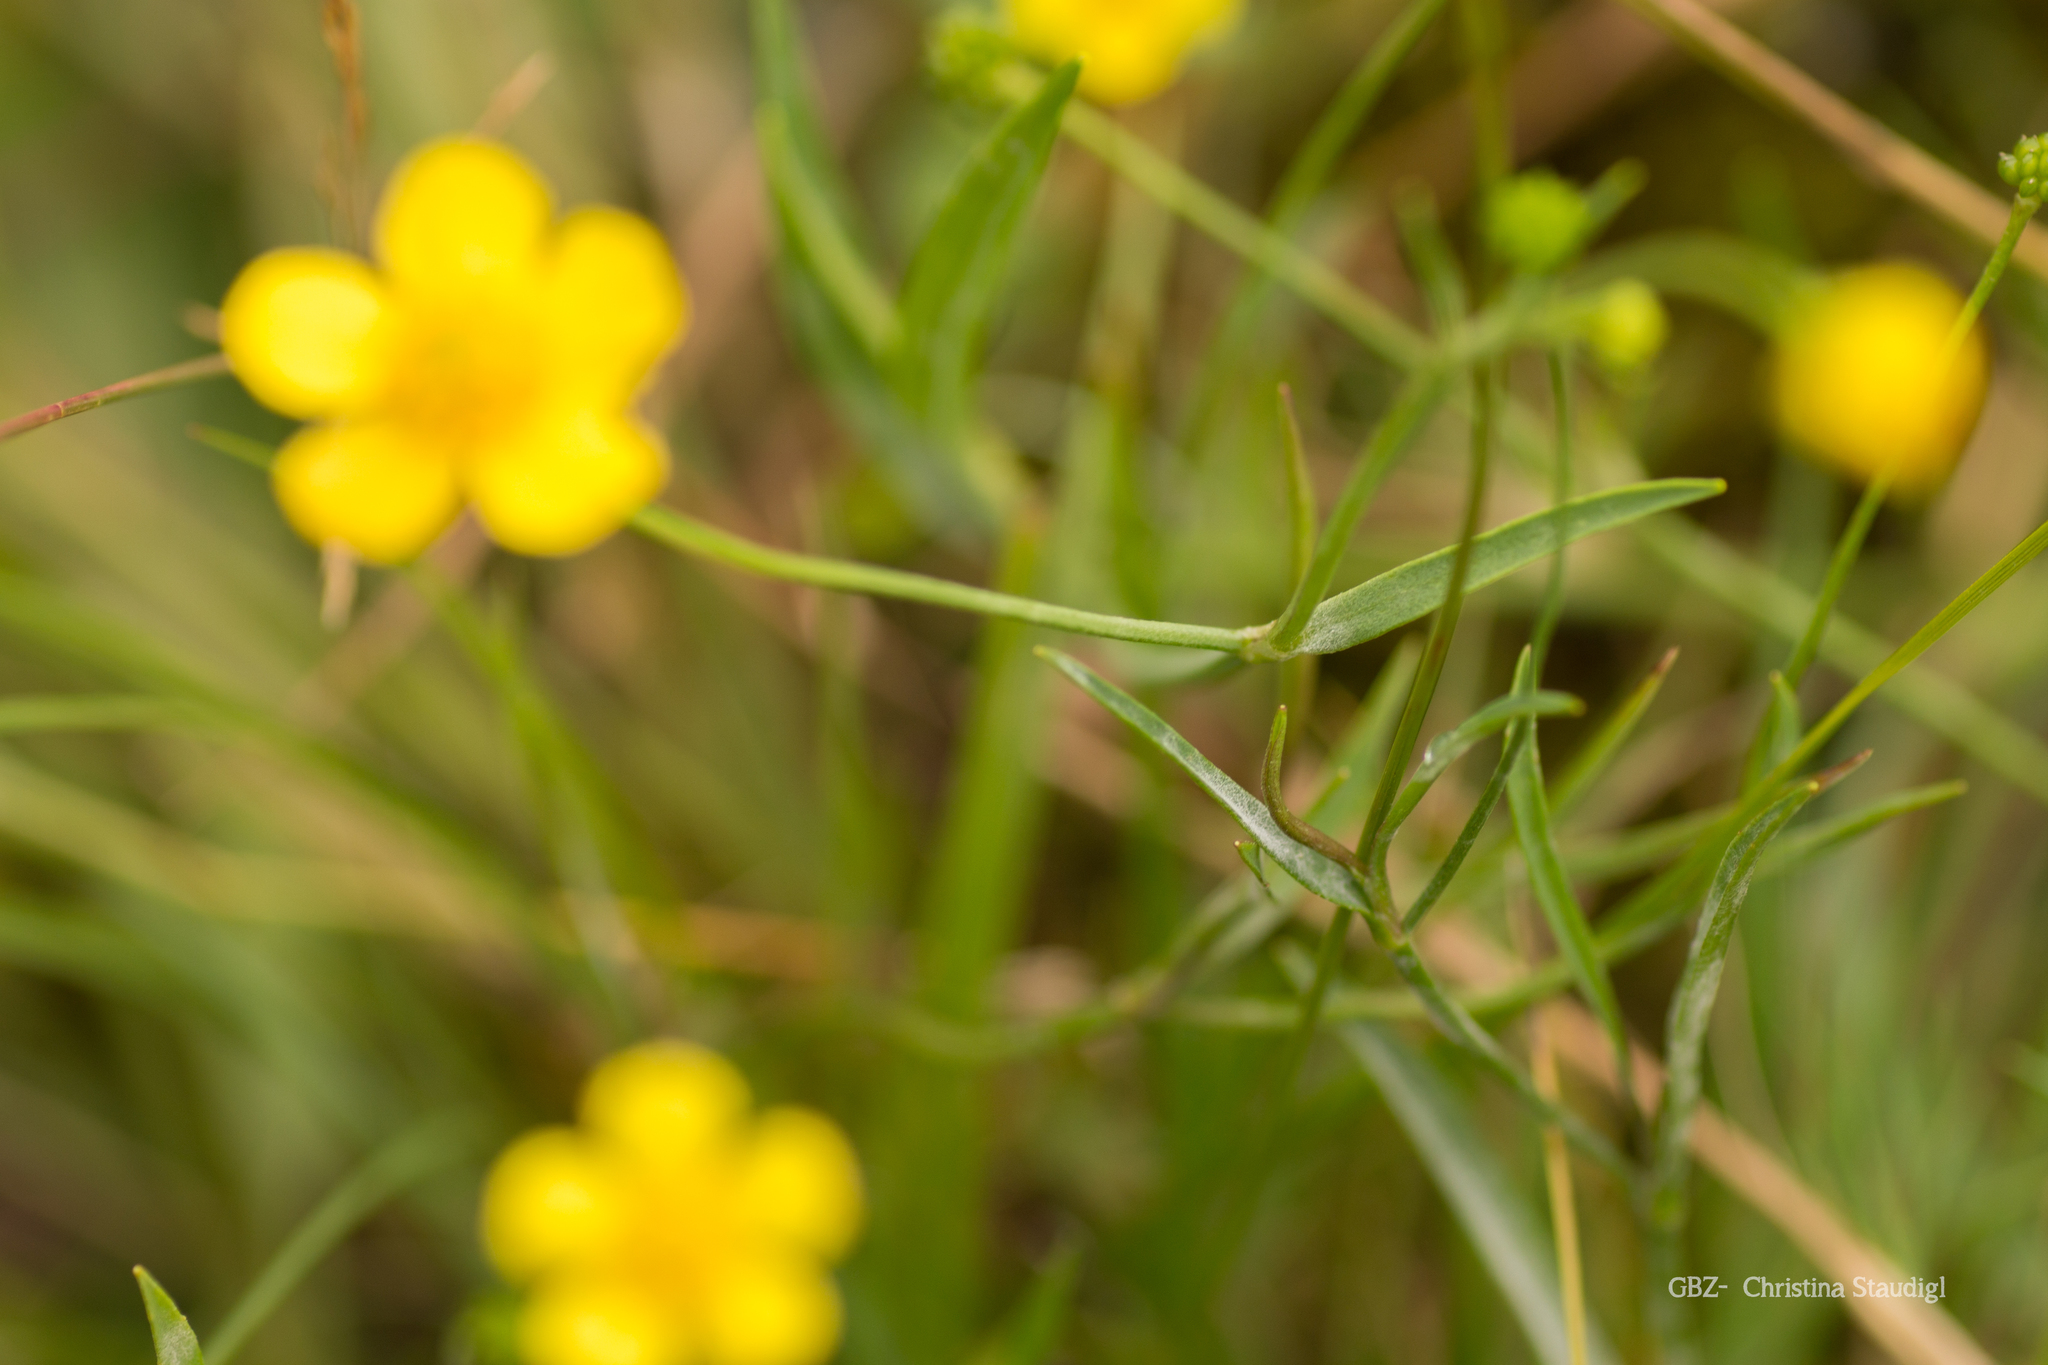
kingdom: Plantae
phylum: Tracheophyta
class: Magnoliopsida
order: Ranunculales
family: Ranunculaceae
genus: Ranunculus
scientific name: Ranunculus flammula
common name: Lesser spearwort
